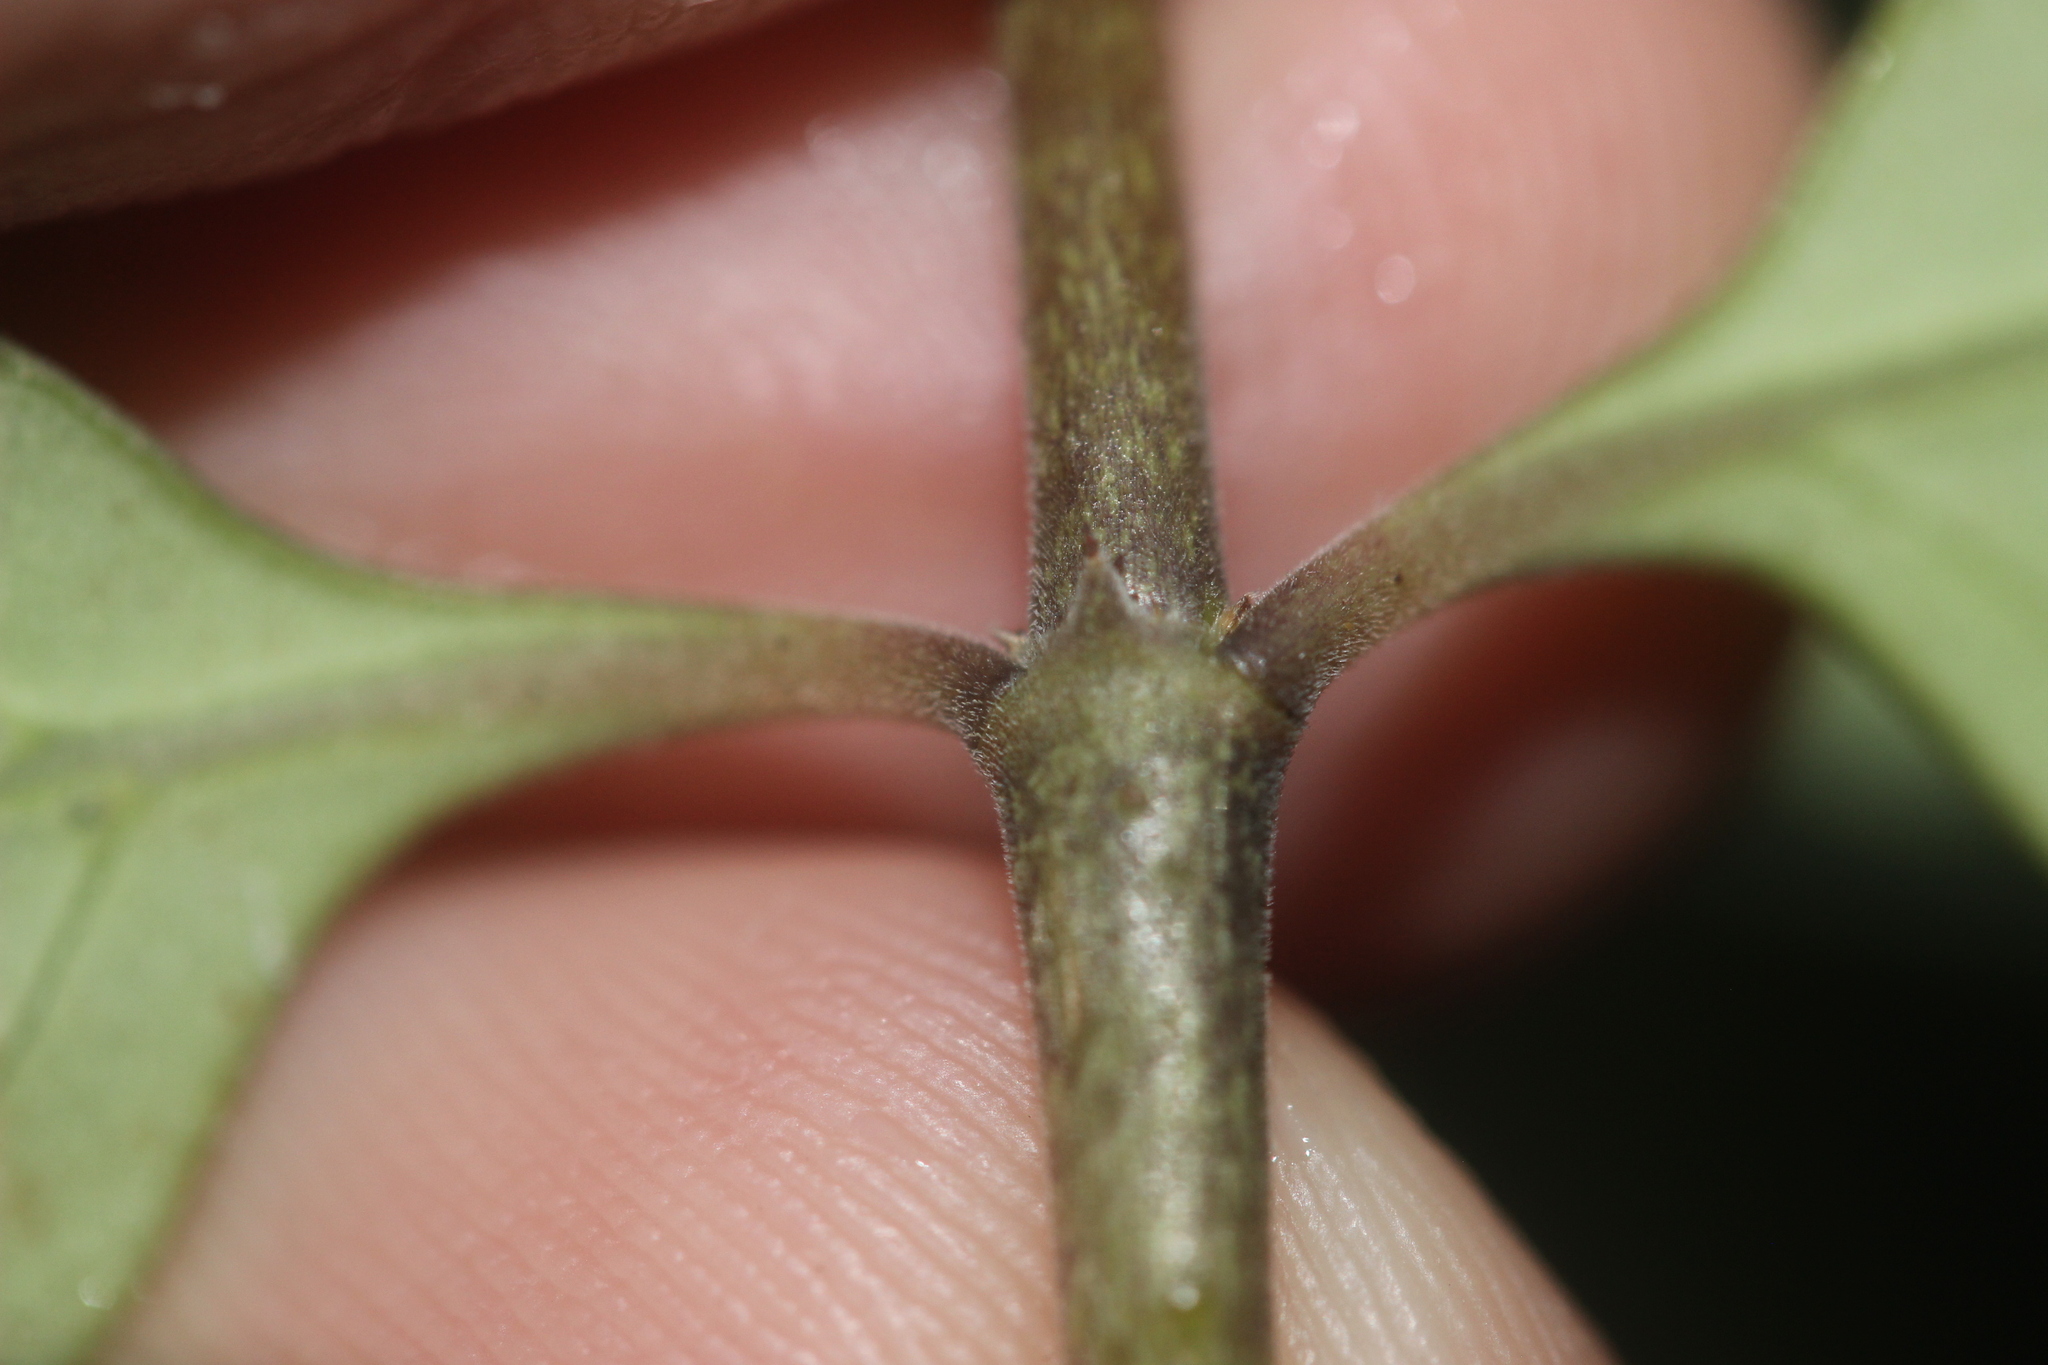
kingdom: Plantae
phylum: Tracheophyta
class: Magnoliopsida
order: Gentianales
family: Rubiaceae
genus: Coprosma
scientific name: Coprosma crassifolia
